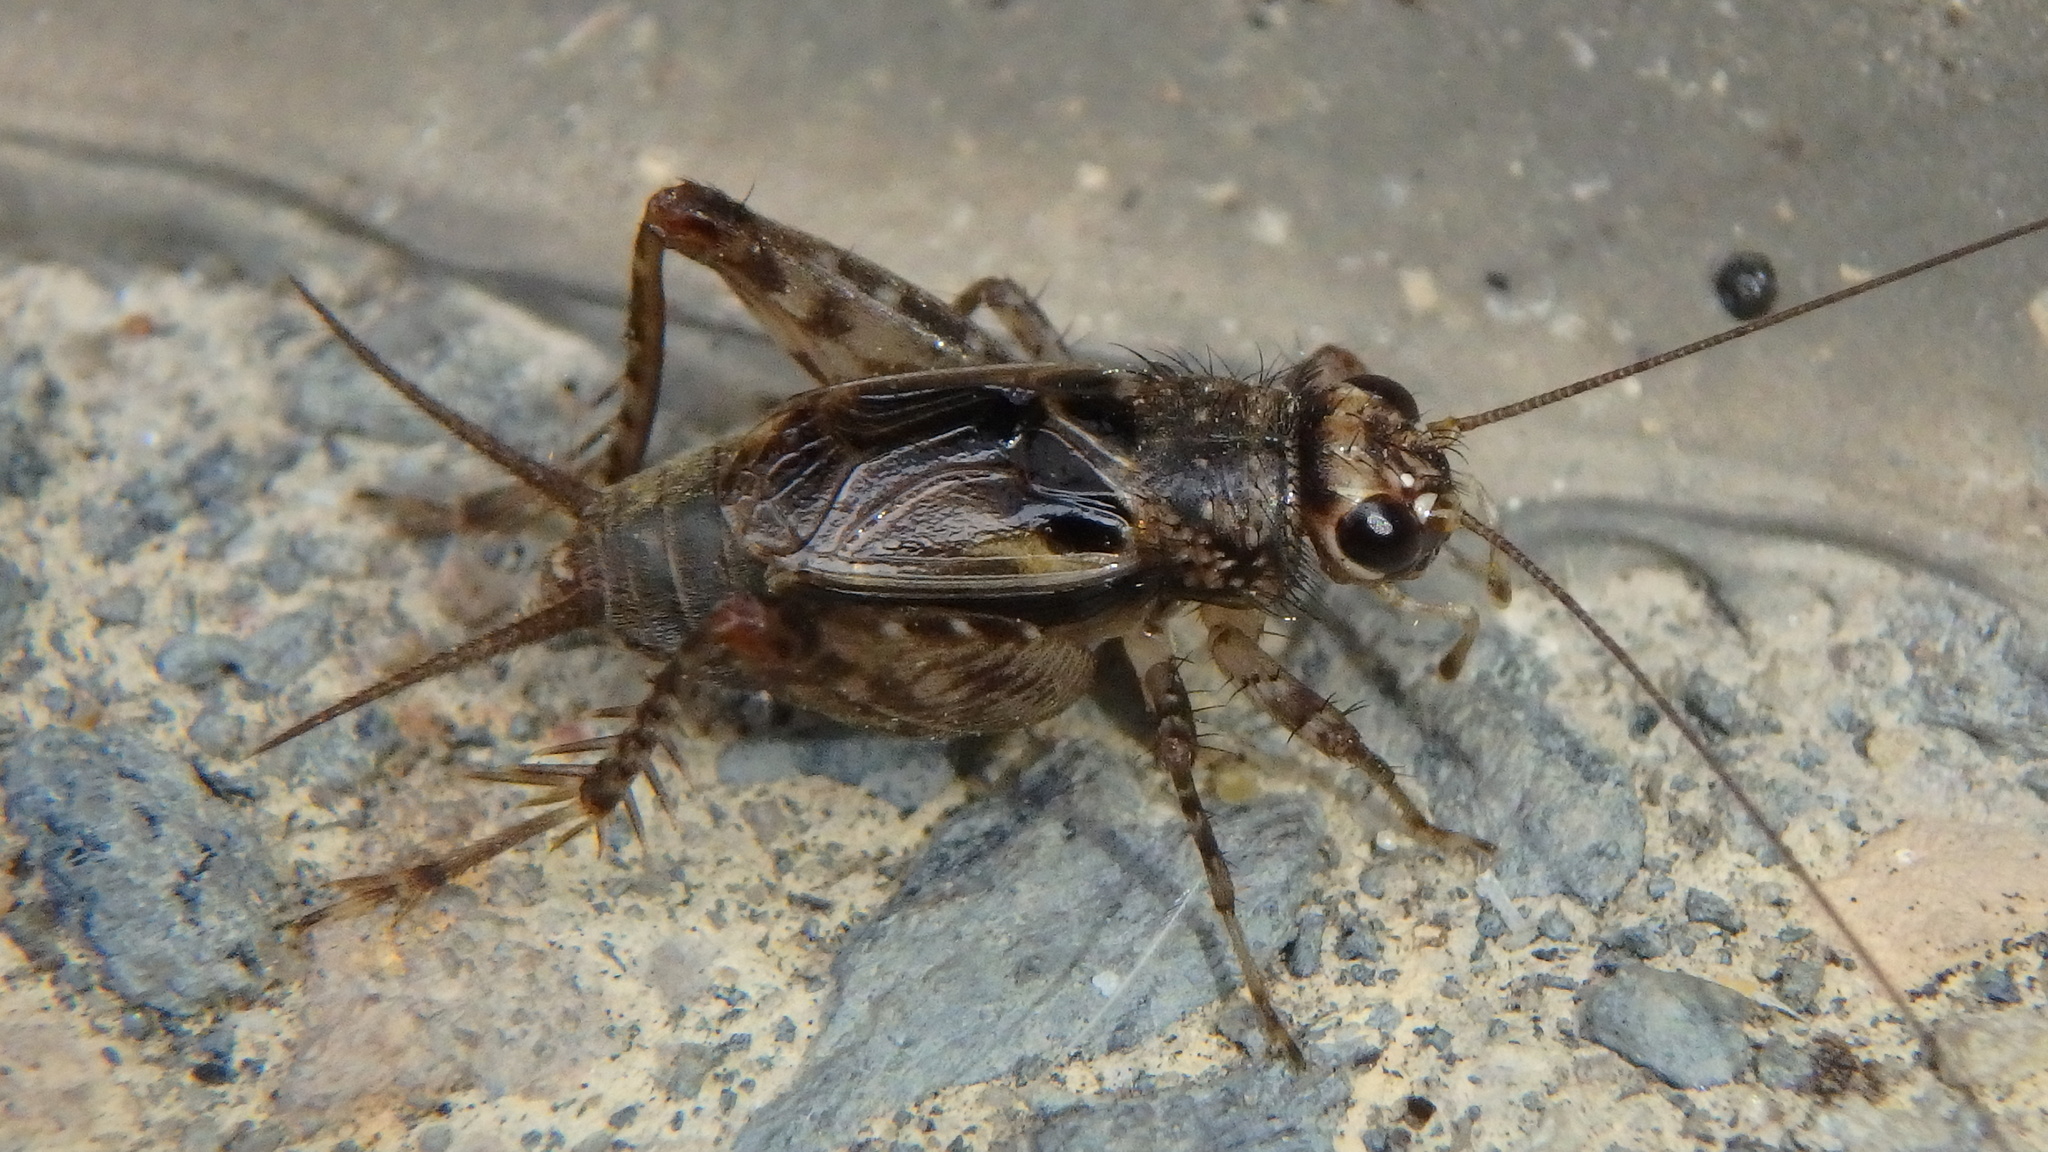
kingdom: Animalia
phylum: Arthropoda
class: Insecta
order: Orthoptera
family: Trigonidiidae
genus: Neonemobius
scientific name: Neonemobius variegatus
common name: Smaller spotted ground cricket
